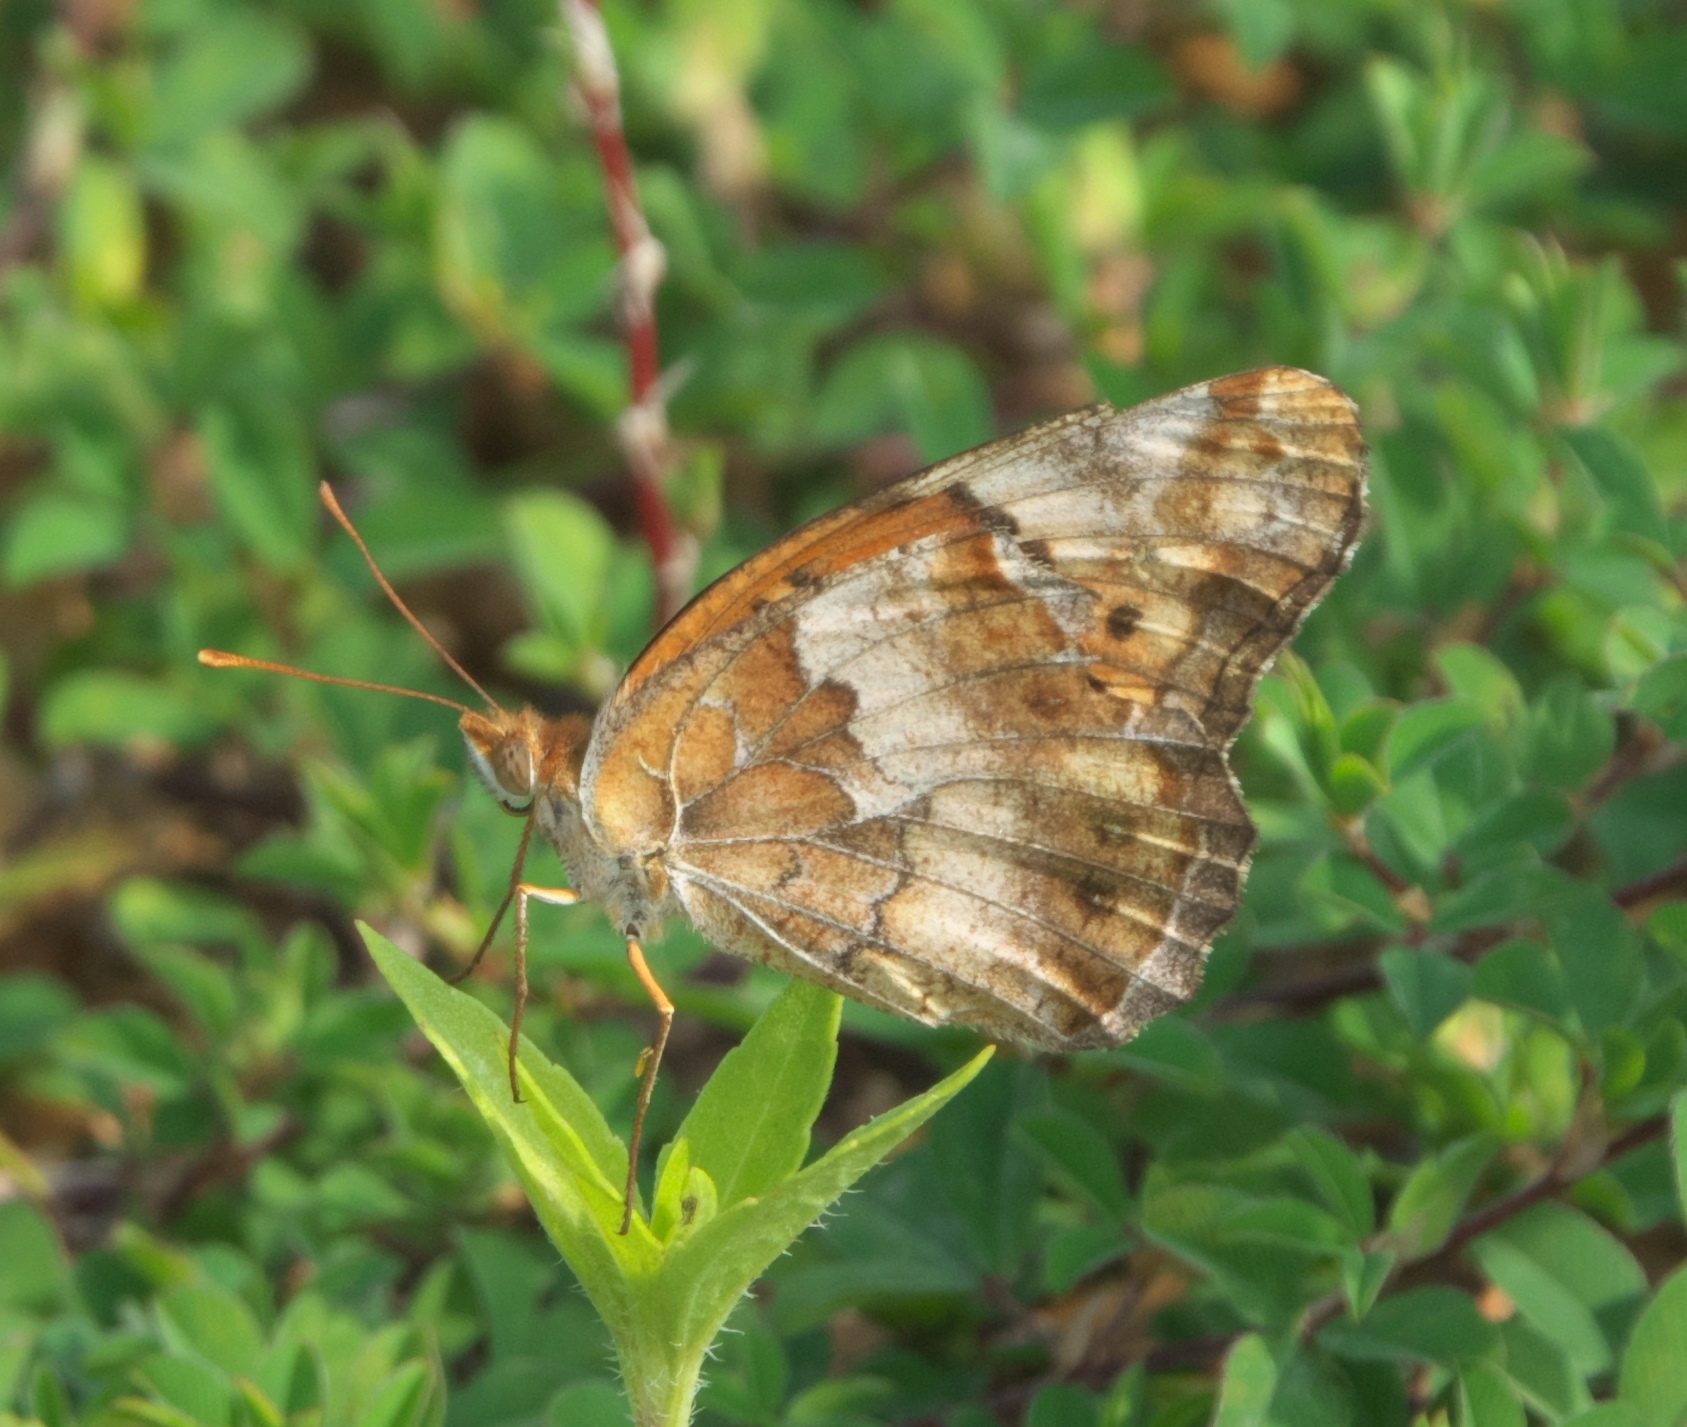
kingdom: Animalia
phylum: Arthropoda
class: Insecta
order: Lepidoptera
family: Nymphalidae
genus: Euptoieta
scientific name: Euptoieta claudia
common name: Variegated fritillary
